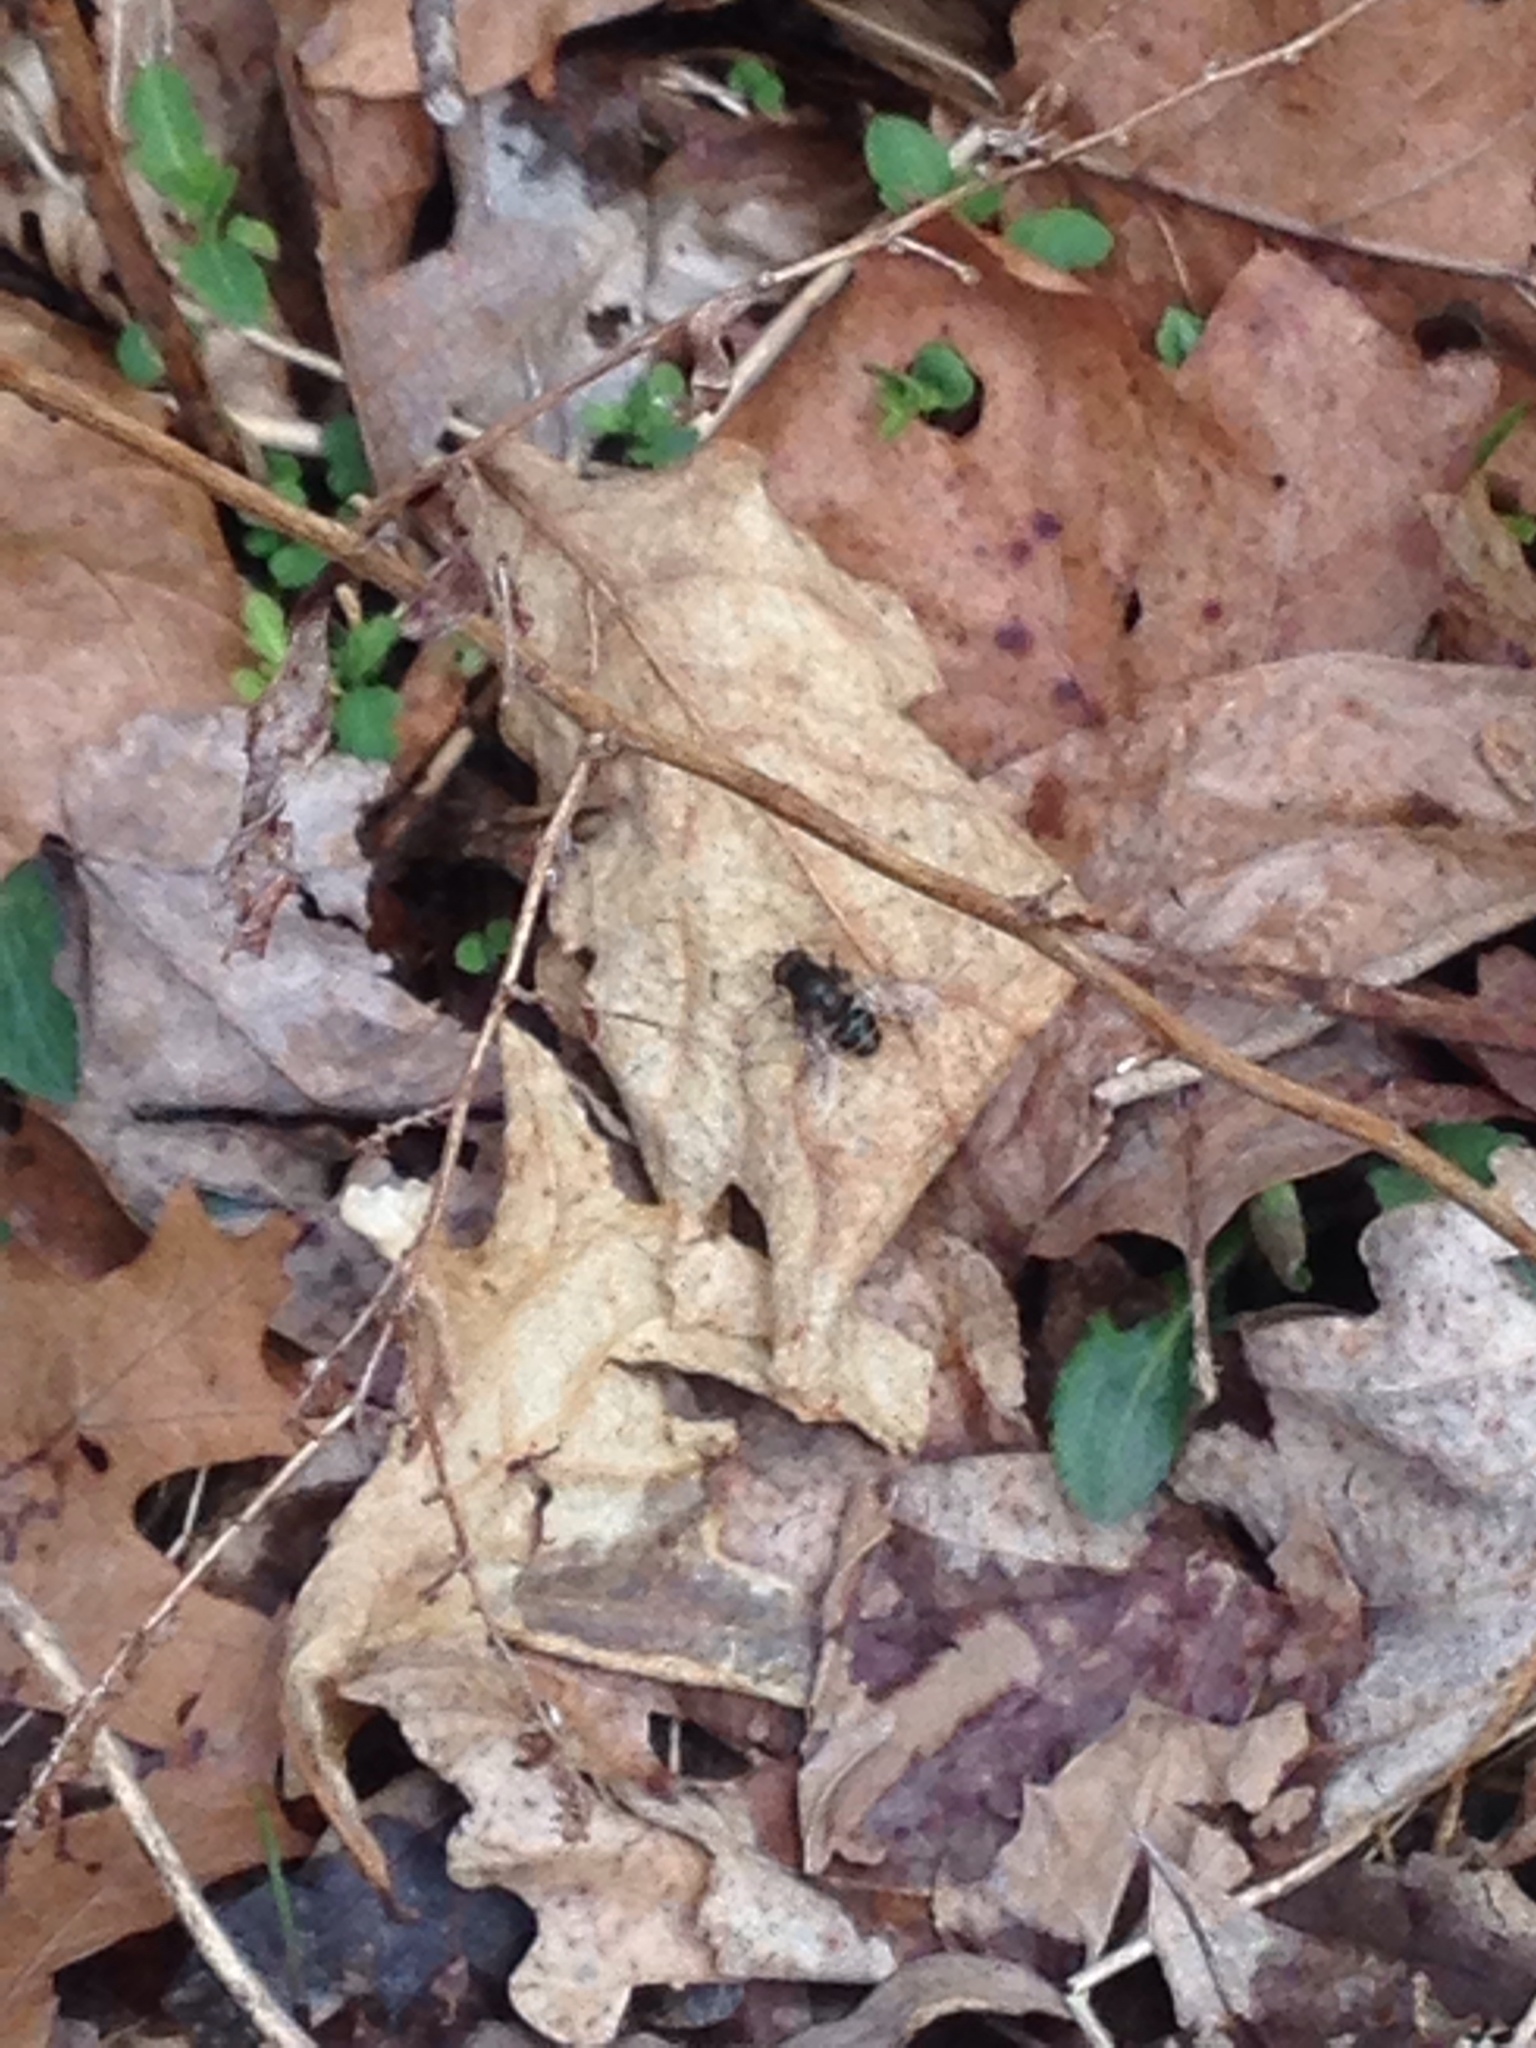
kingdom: Animalia
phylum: Arthropoda
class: Insecta
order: Diptera
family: Syrphidae
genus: Eristalis
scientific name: Eristalis dimidiata
